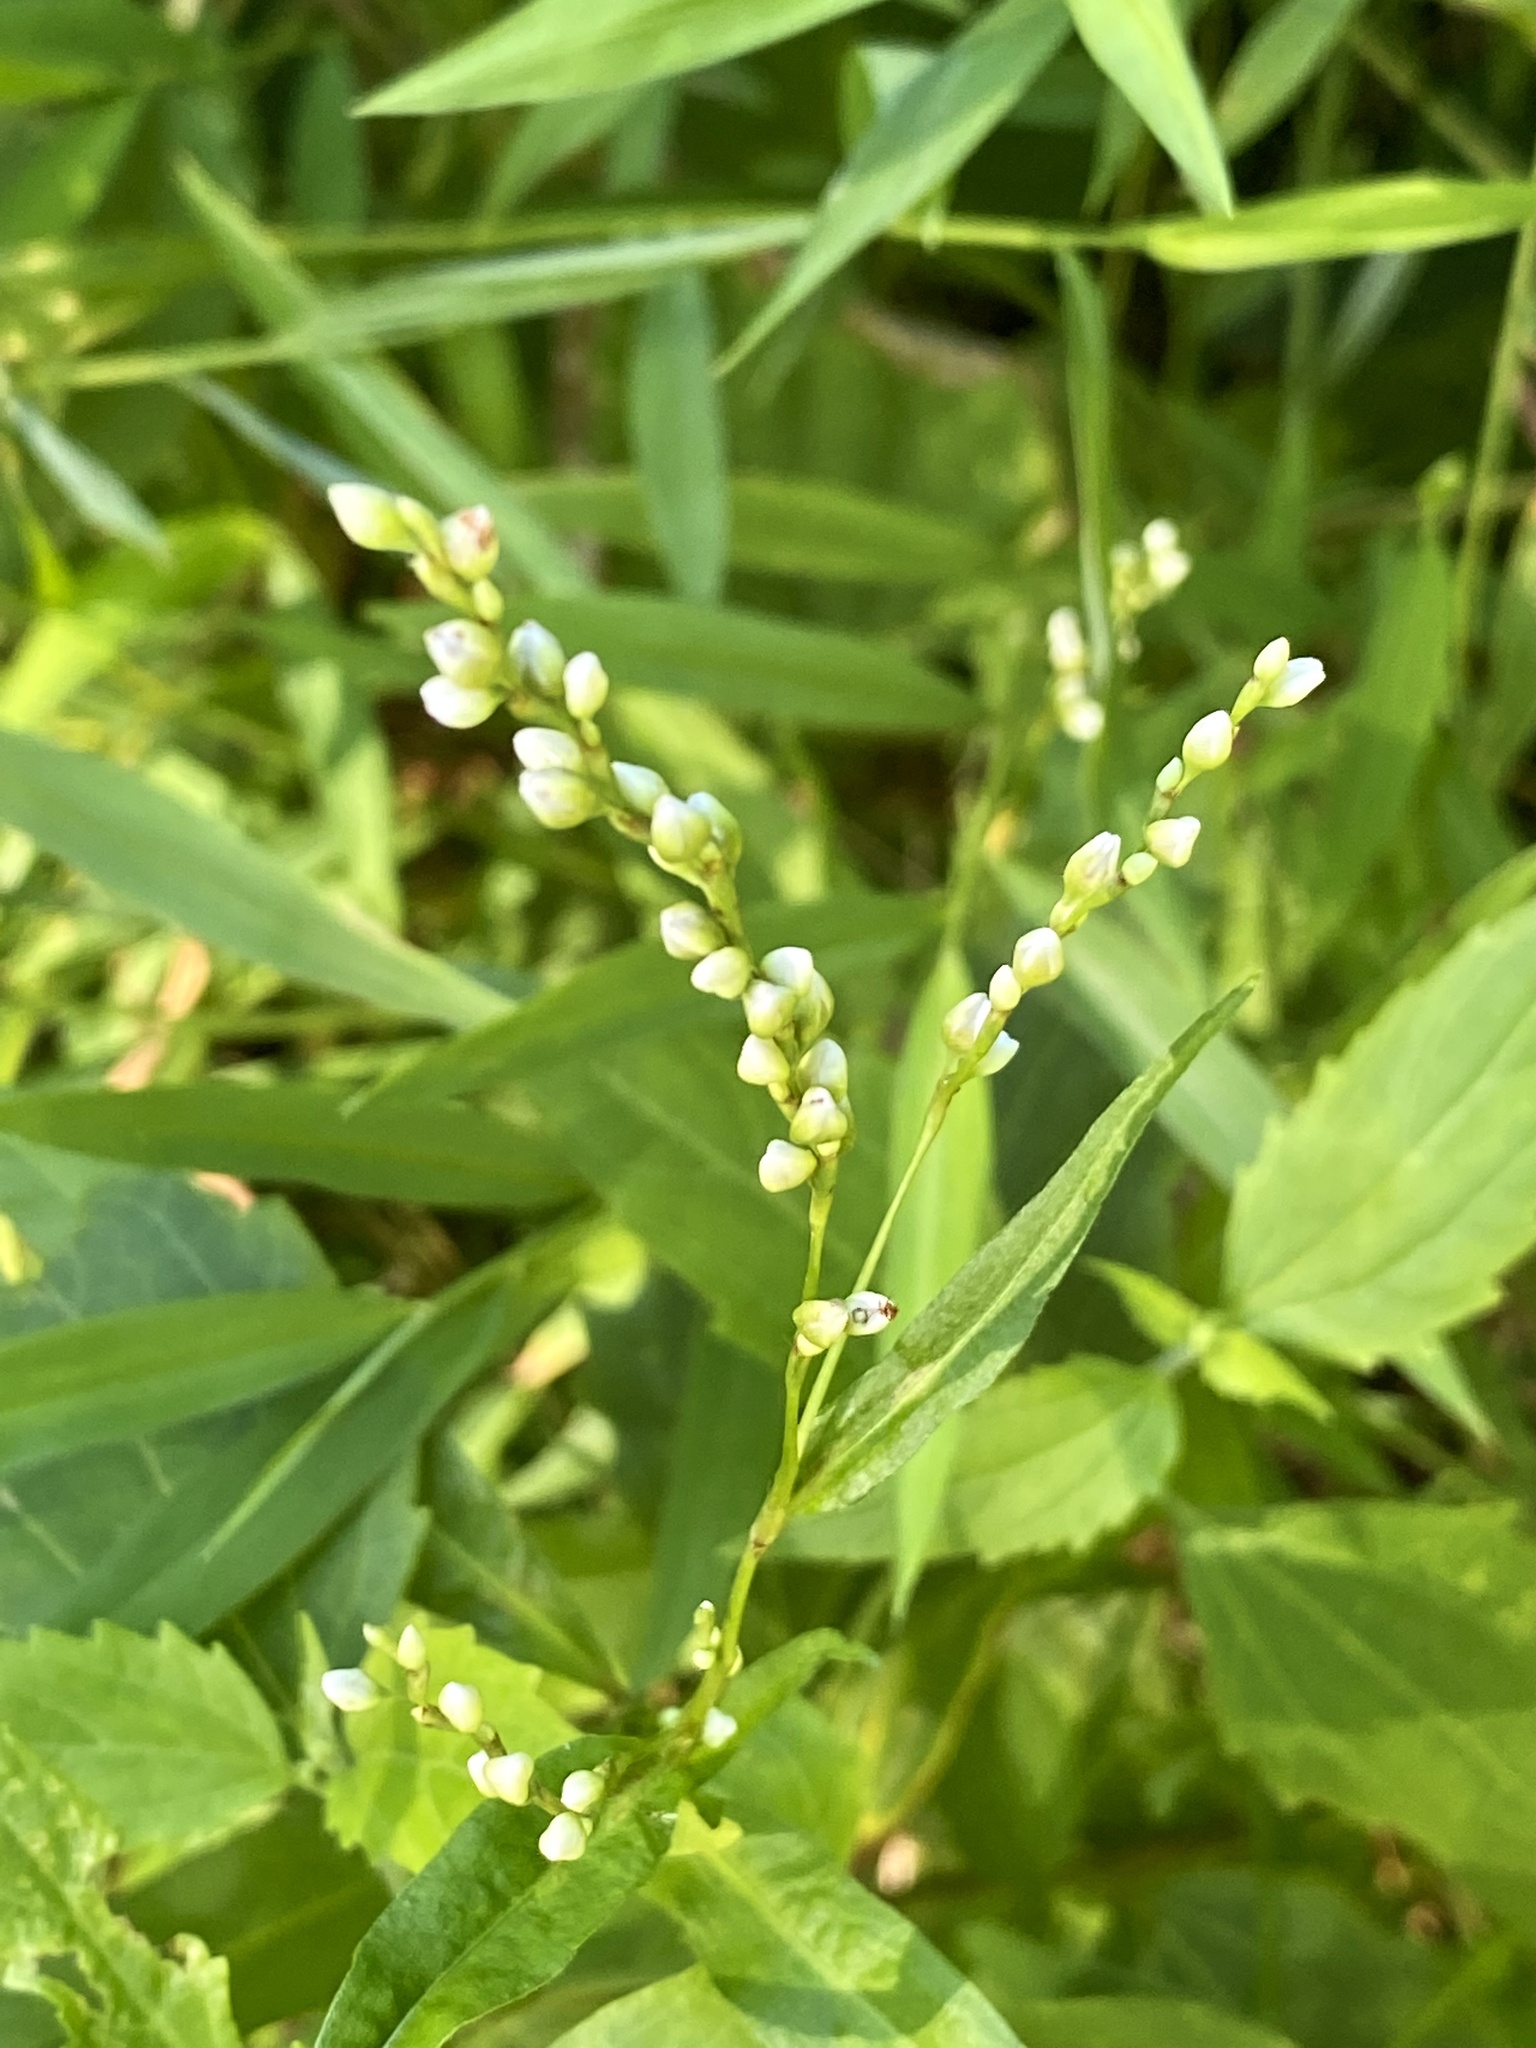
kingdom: Plantae
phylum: Tracheophyta
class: Magnoliopsida
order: Caryophyllales
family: Polygonaceae
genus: Persicaria
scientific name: Persicaria punctata
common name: Dotted smartweed
